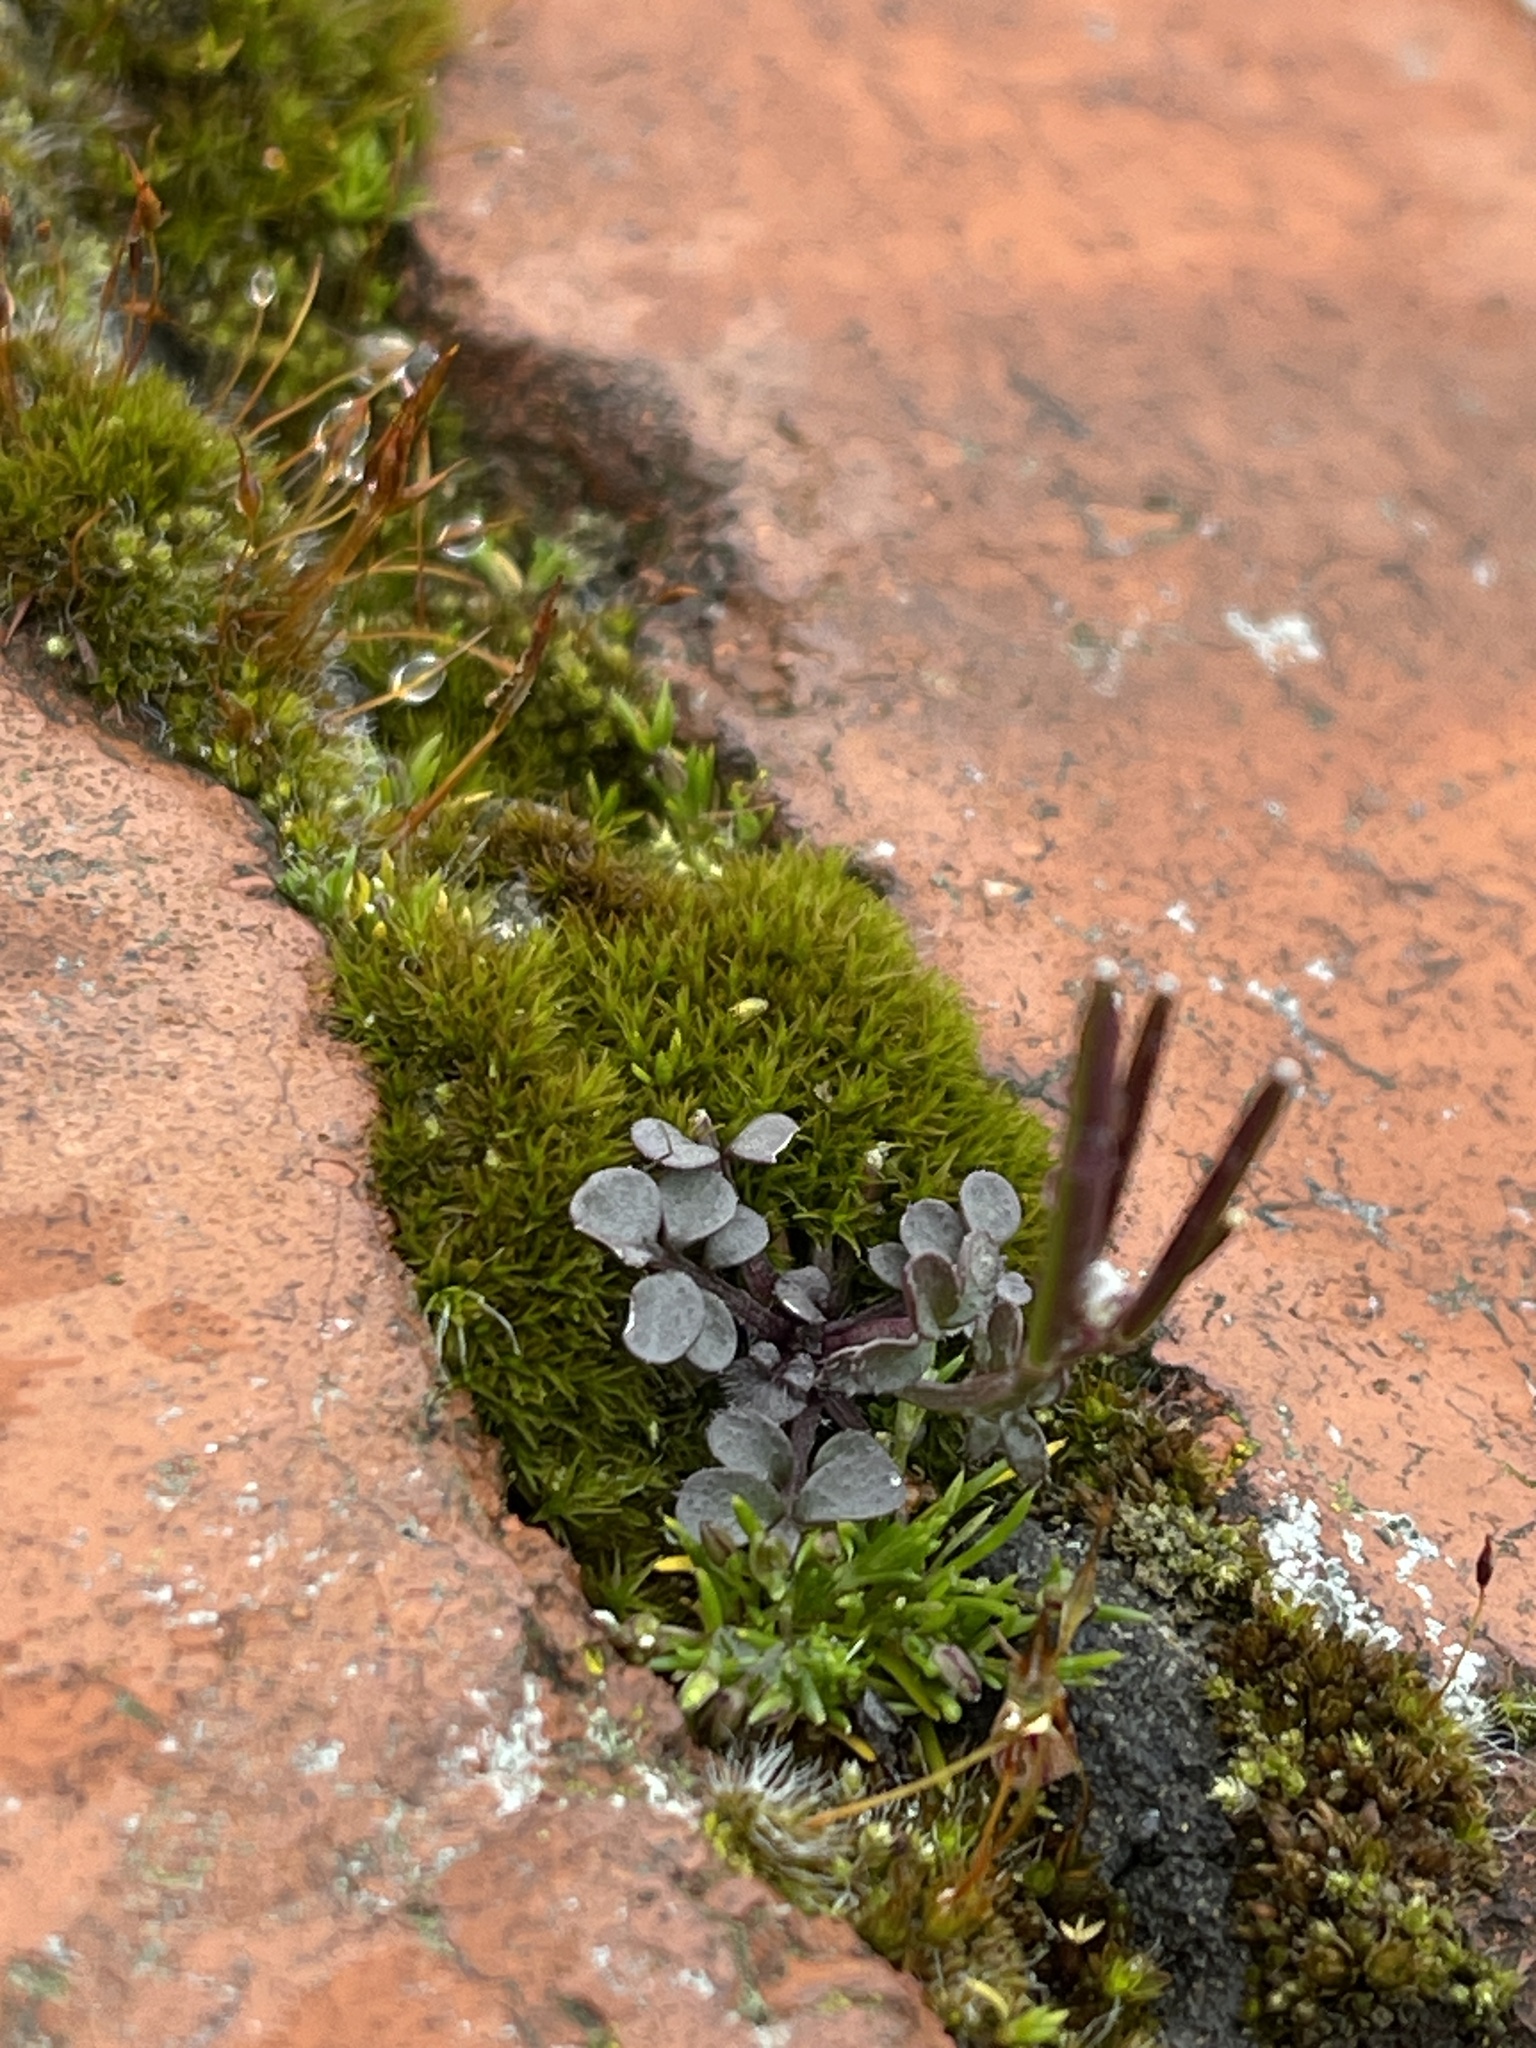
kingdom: Plantae
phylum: Tracheophyta
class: Magnoliopsida
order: Brassicales
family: Brassicaceae
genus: Cardamine
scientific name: Cardamine hirsuta
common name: Hairy bittercress
